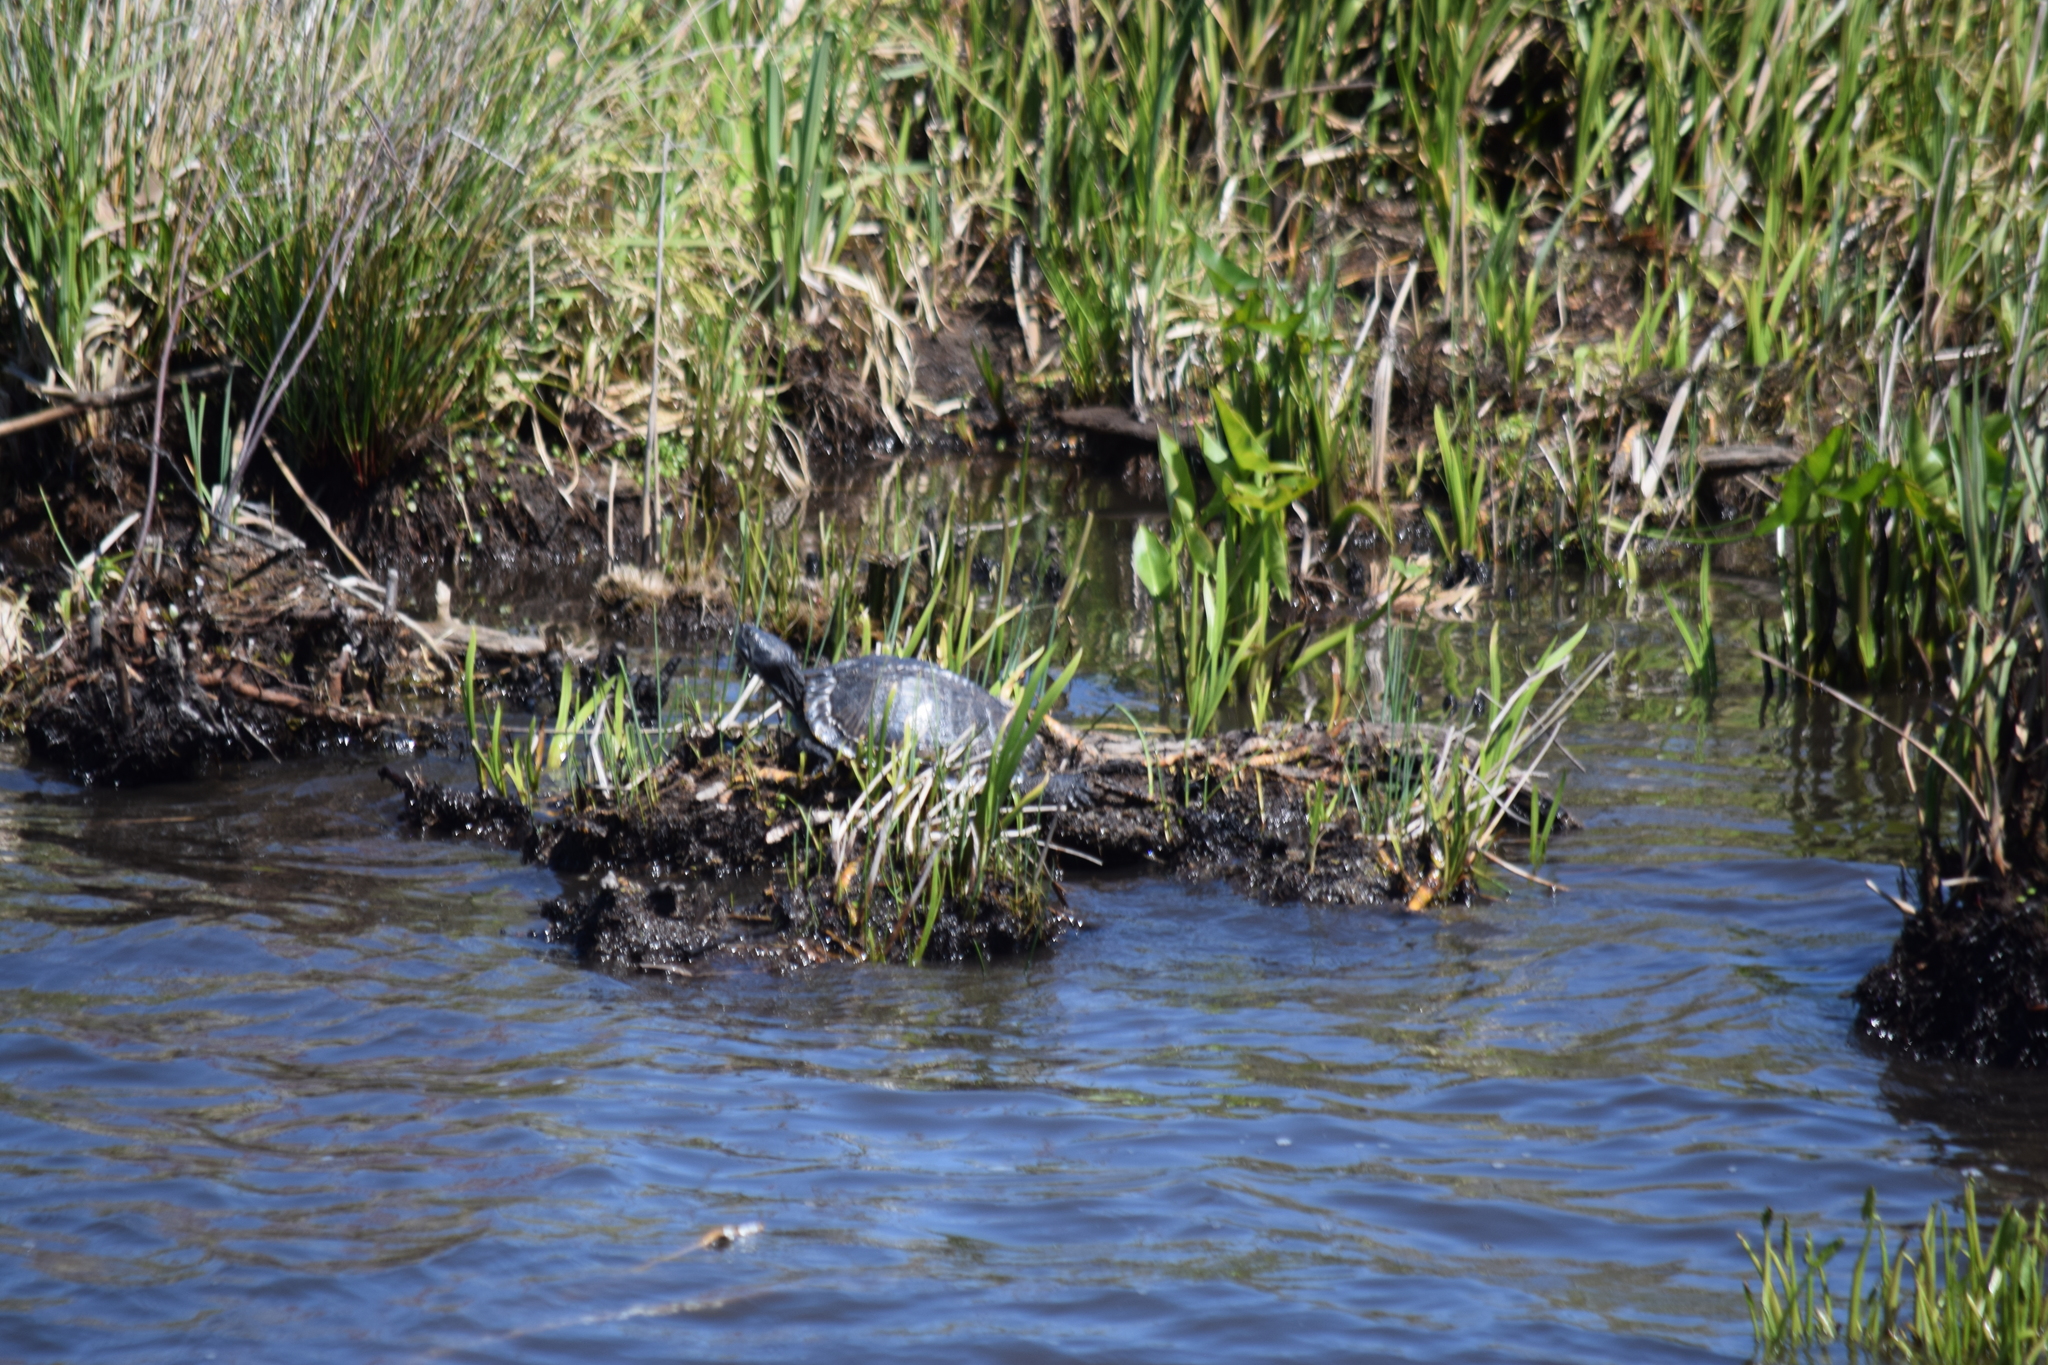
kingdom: Animalia
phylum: Chordata
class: Testudines
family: Emydidae
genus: Trachemys
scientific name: Trachemys scripta
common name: Slider
